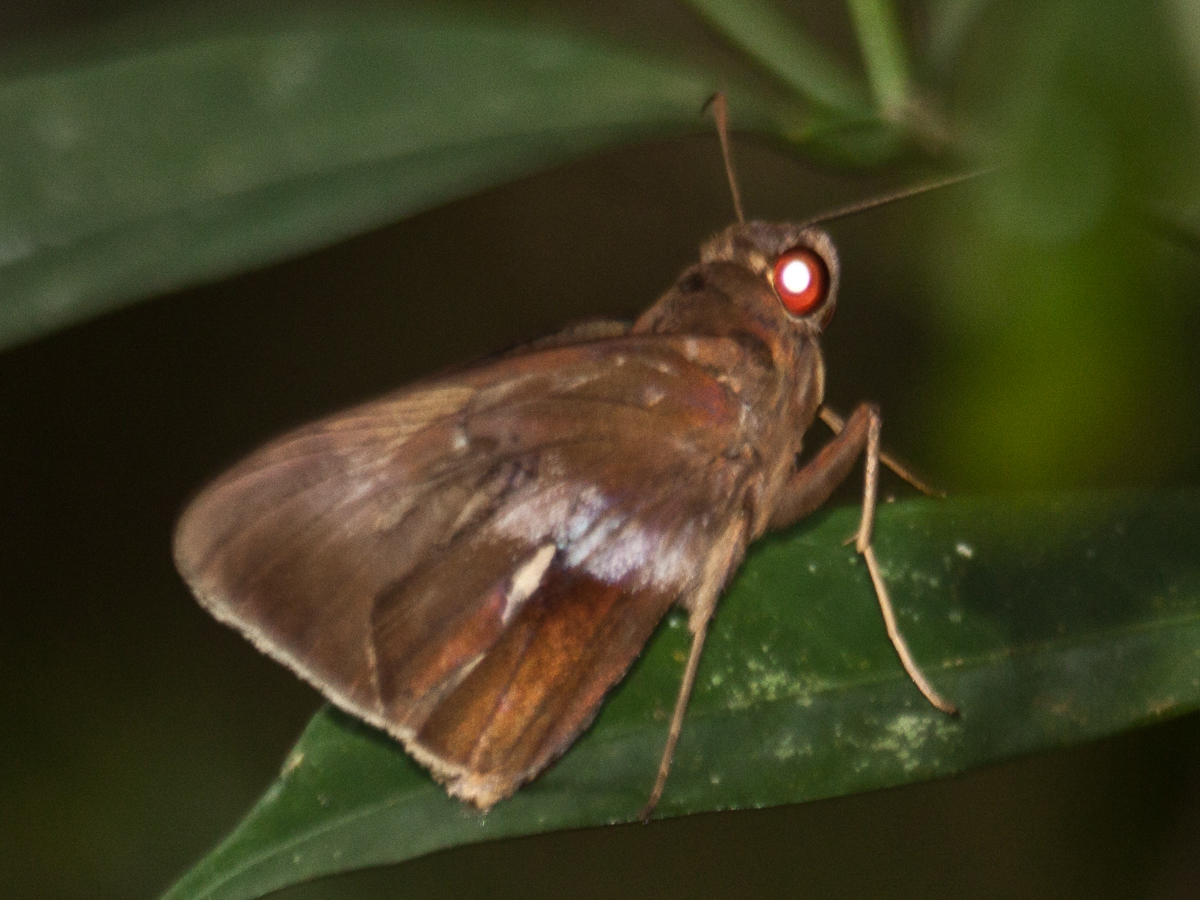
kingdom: Animalia
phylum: Arthropoda
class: Insecta
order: Lepidoptera
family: Hesperiidae
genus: Gangara
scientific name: Gangara lebadea
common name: Banded redeye
